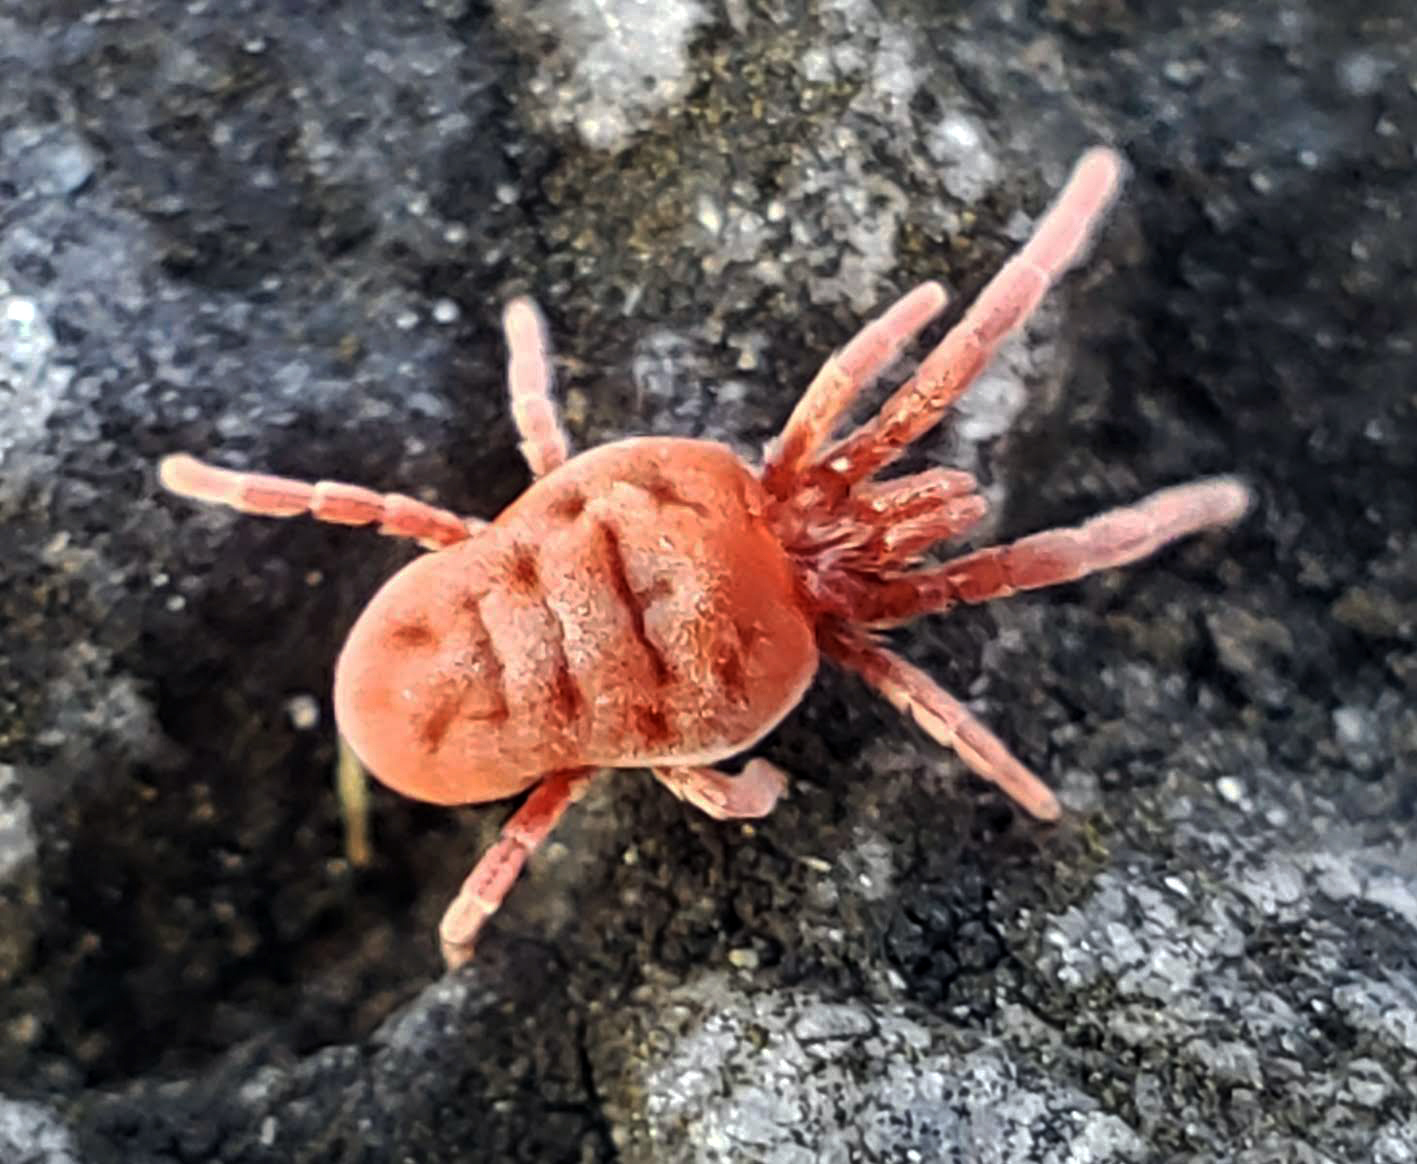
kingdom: Animalia
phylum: Arthropoda
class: Arachnida
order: Trombidiformes
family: Trombidiidae
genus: Allothrombium
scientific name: Allothrombium
